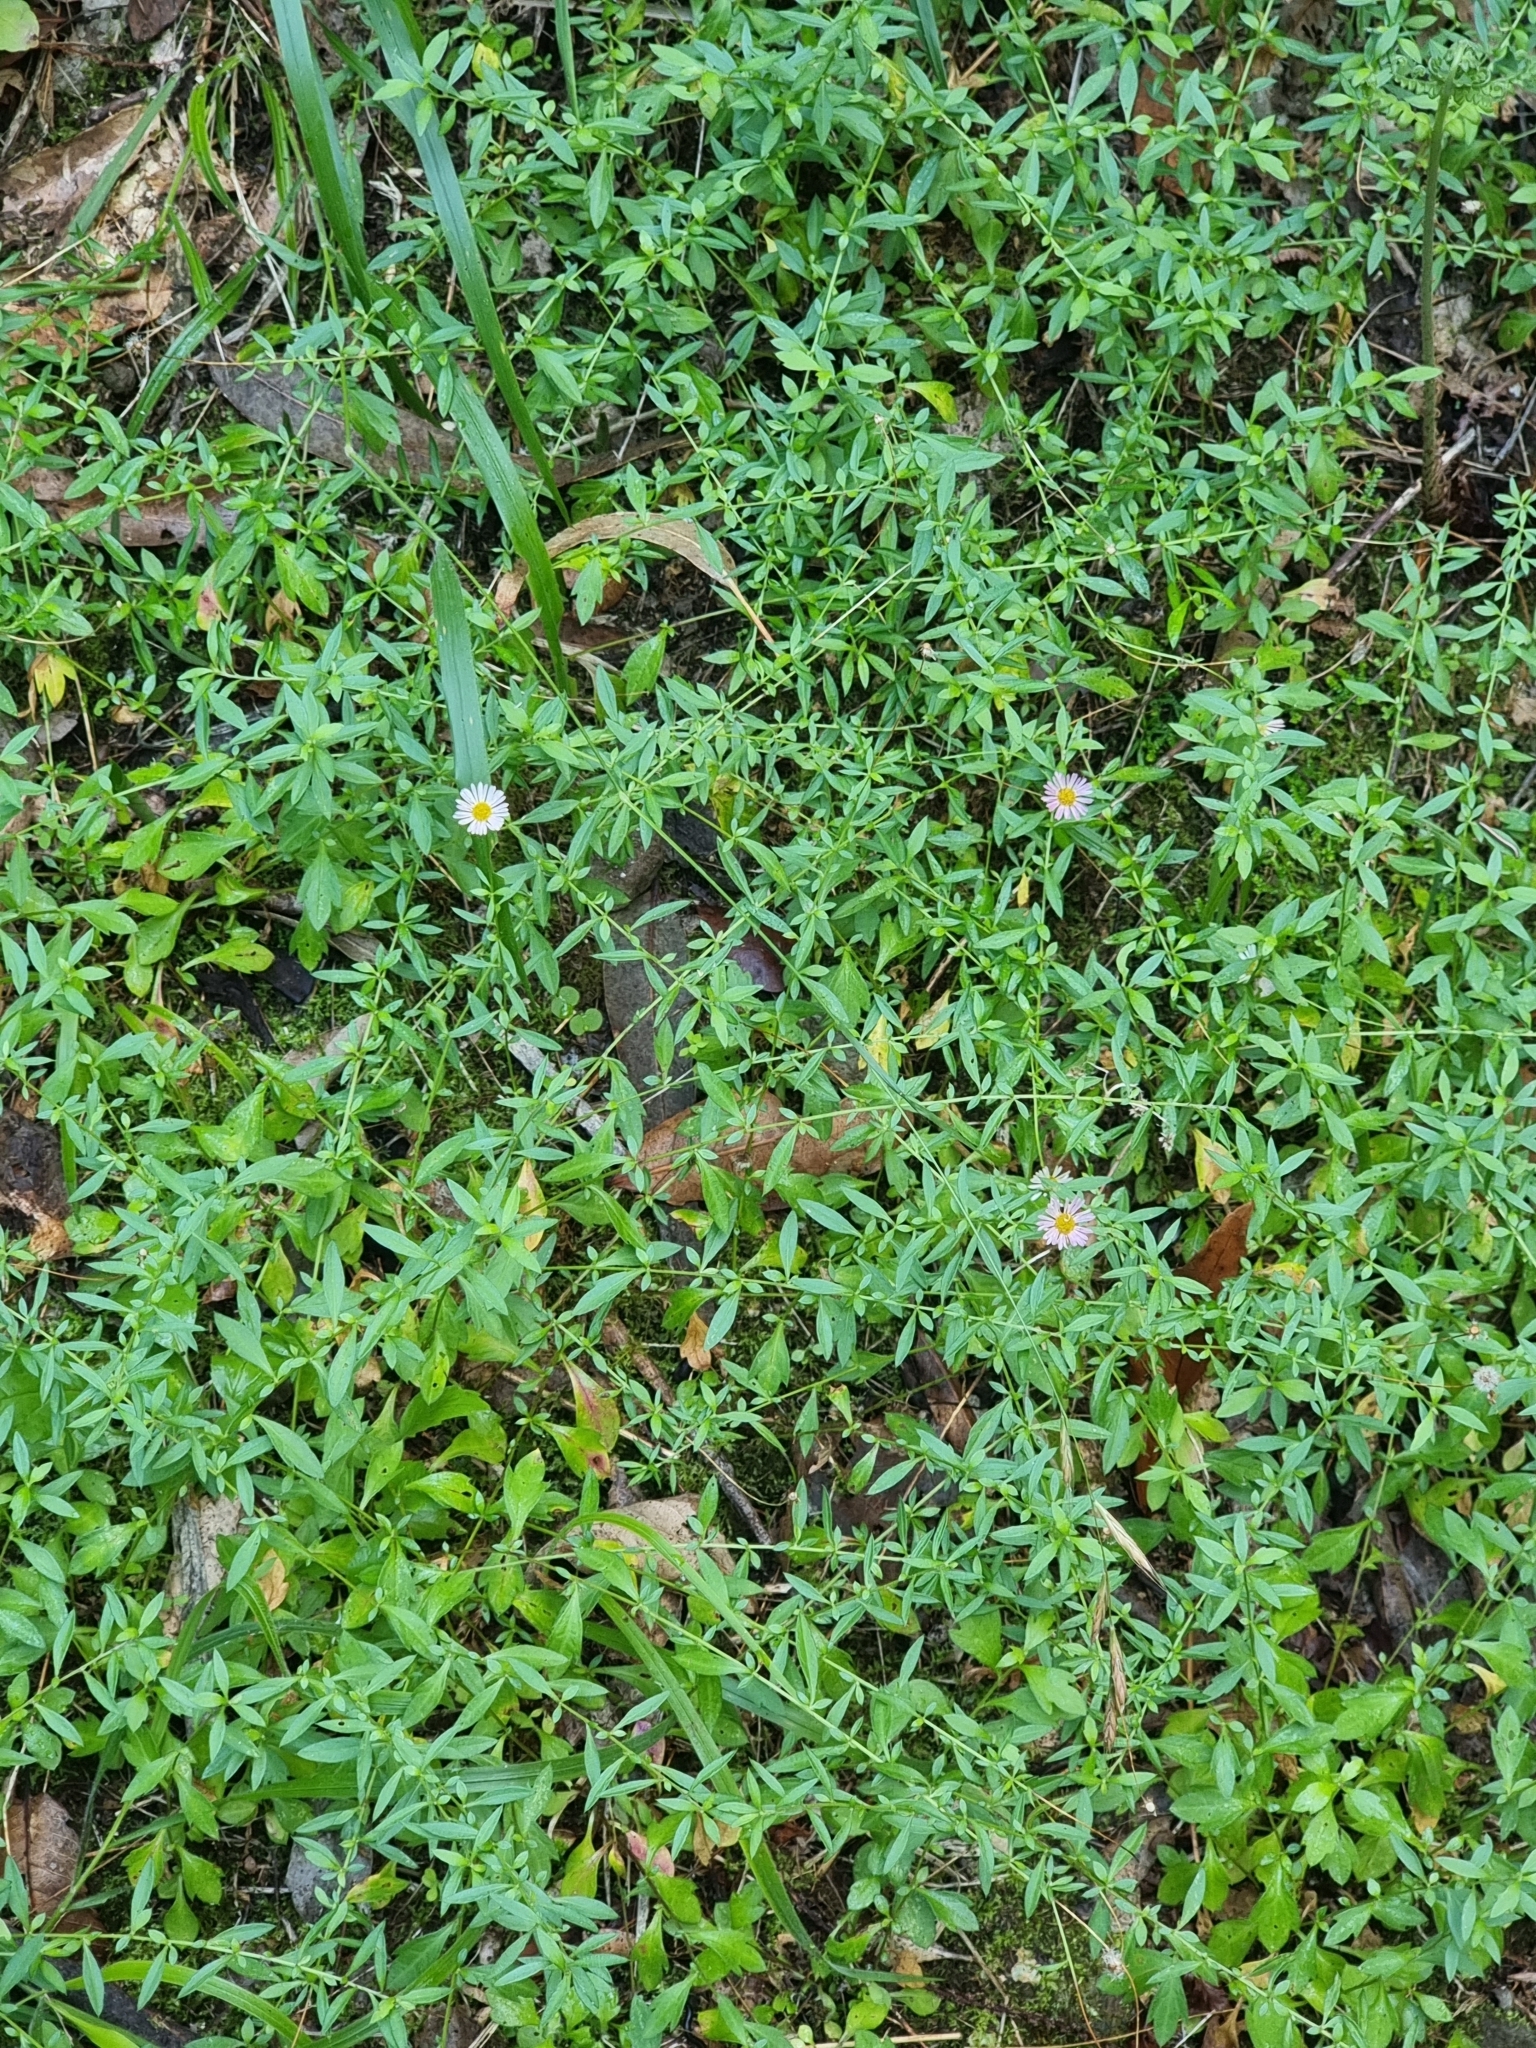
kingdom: Plantae
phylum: Tracheophyta
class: Magnoliopsida
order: Asterales
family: Asteraceae
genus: Erigeron
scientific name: Erigeron karvinskianus
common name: Mexican fleabane
